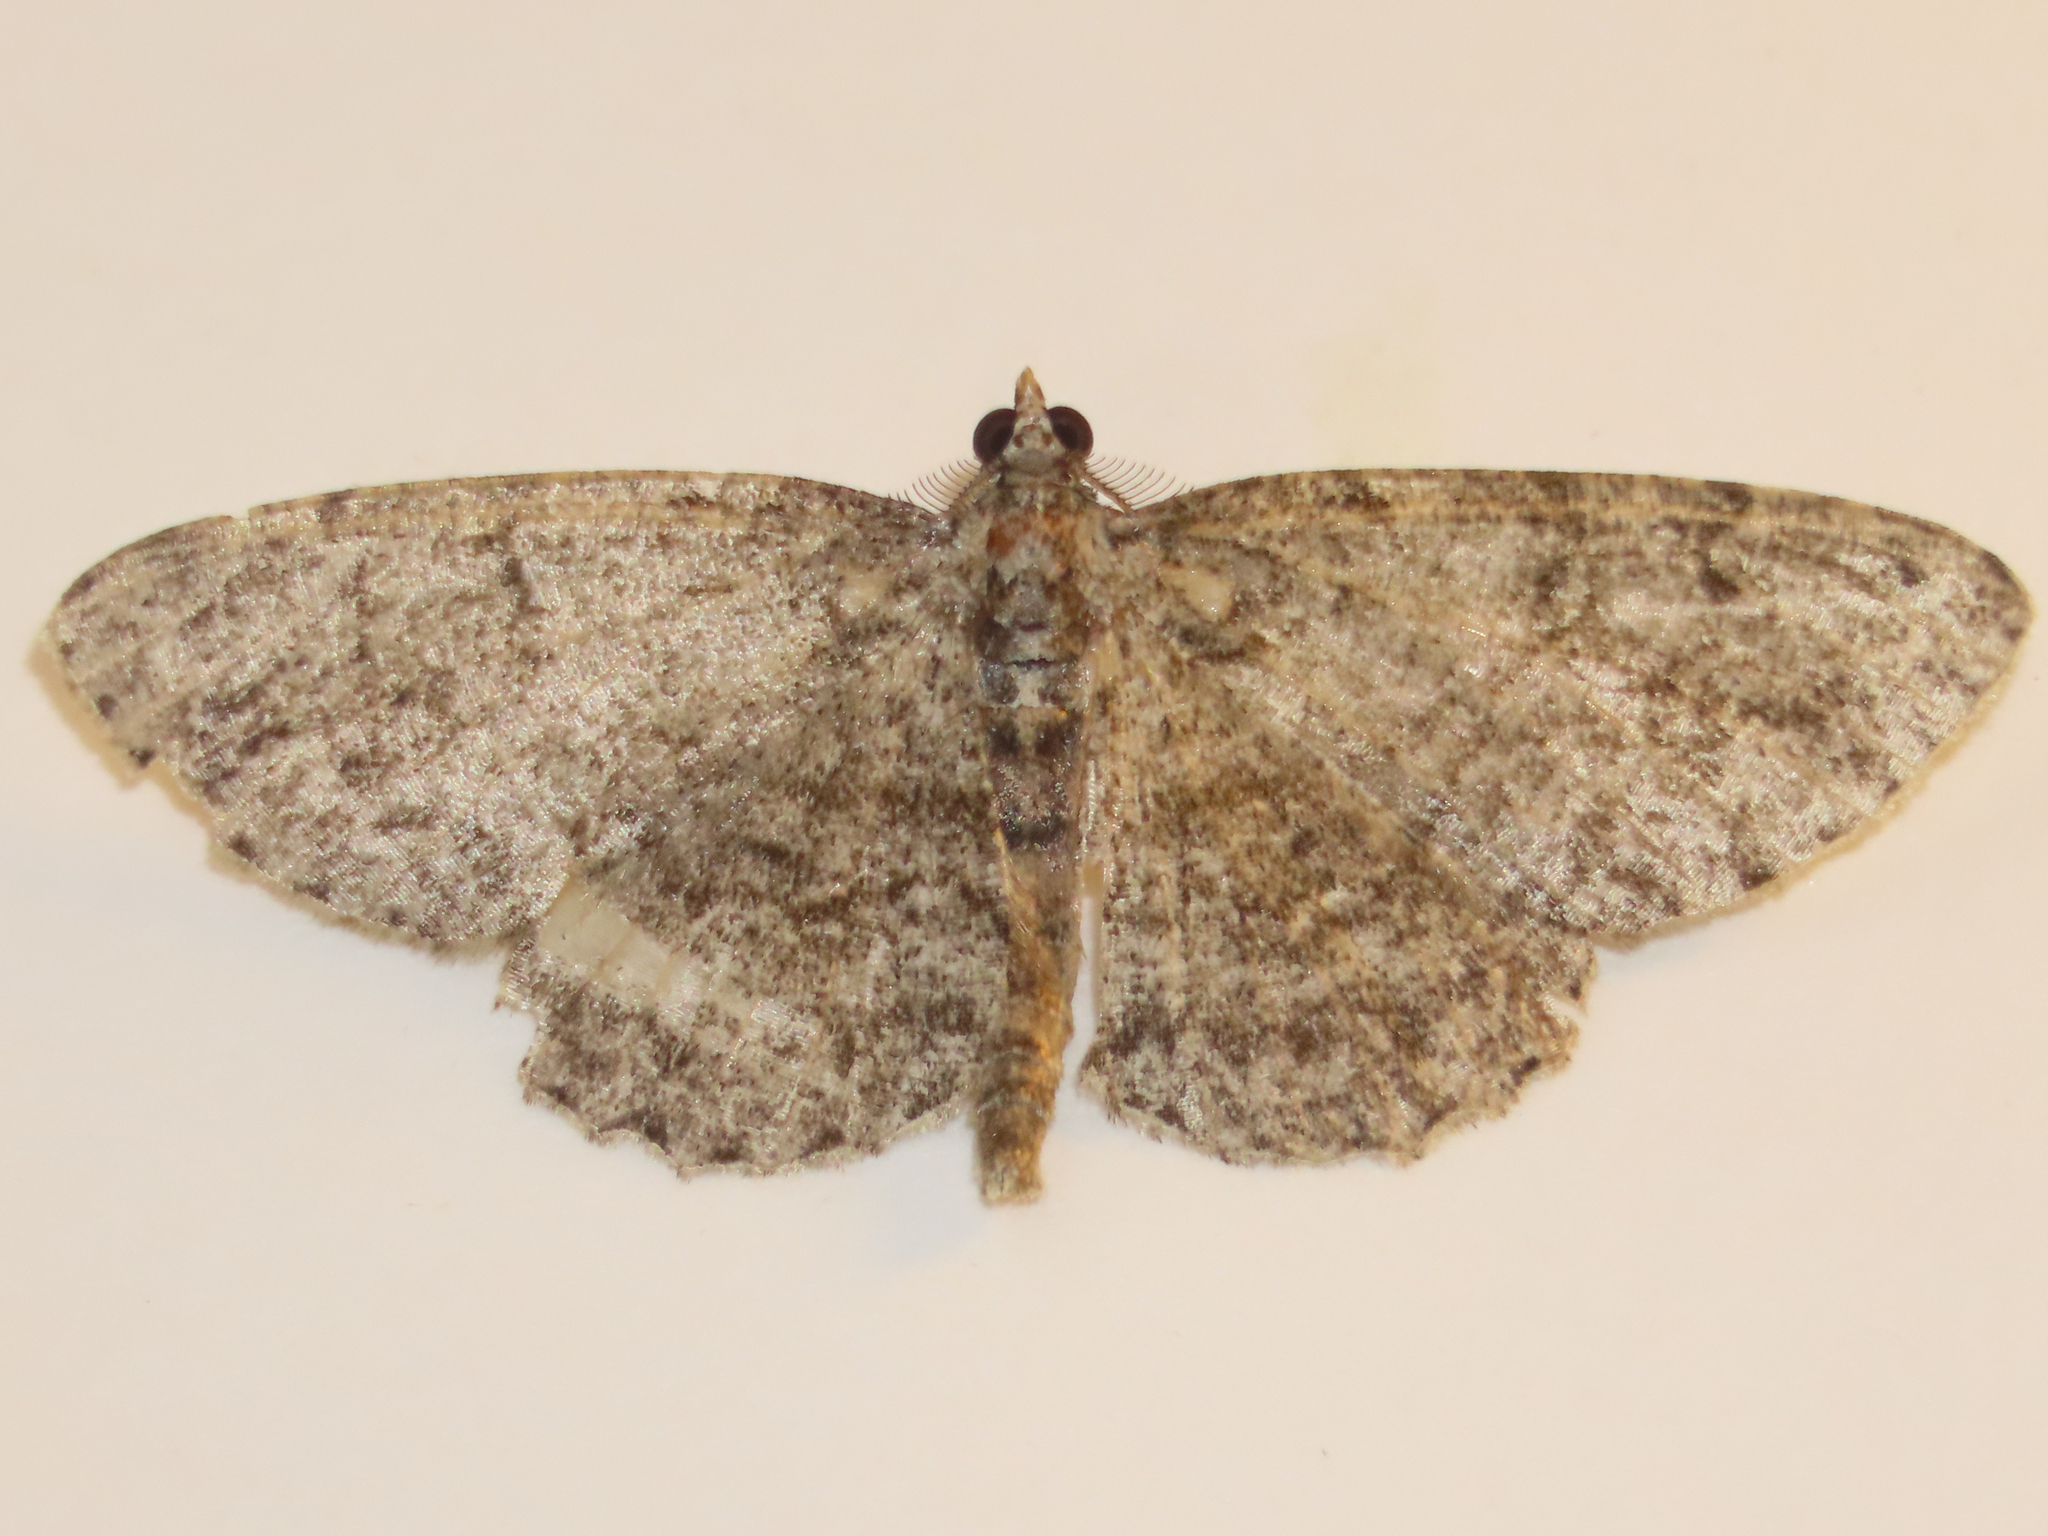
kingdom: Animalia
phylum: Arthropoda
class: Insecta
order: Lepidoptera
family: Geometridae
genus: Protoboarmia
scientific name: Protoboarmia porcelaria
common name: Porcelain gray
